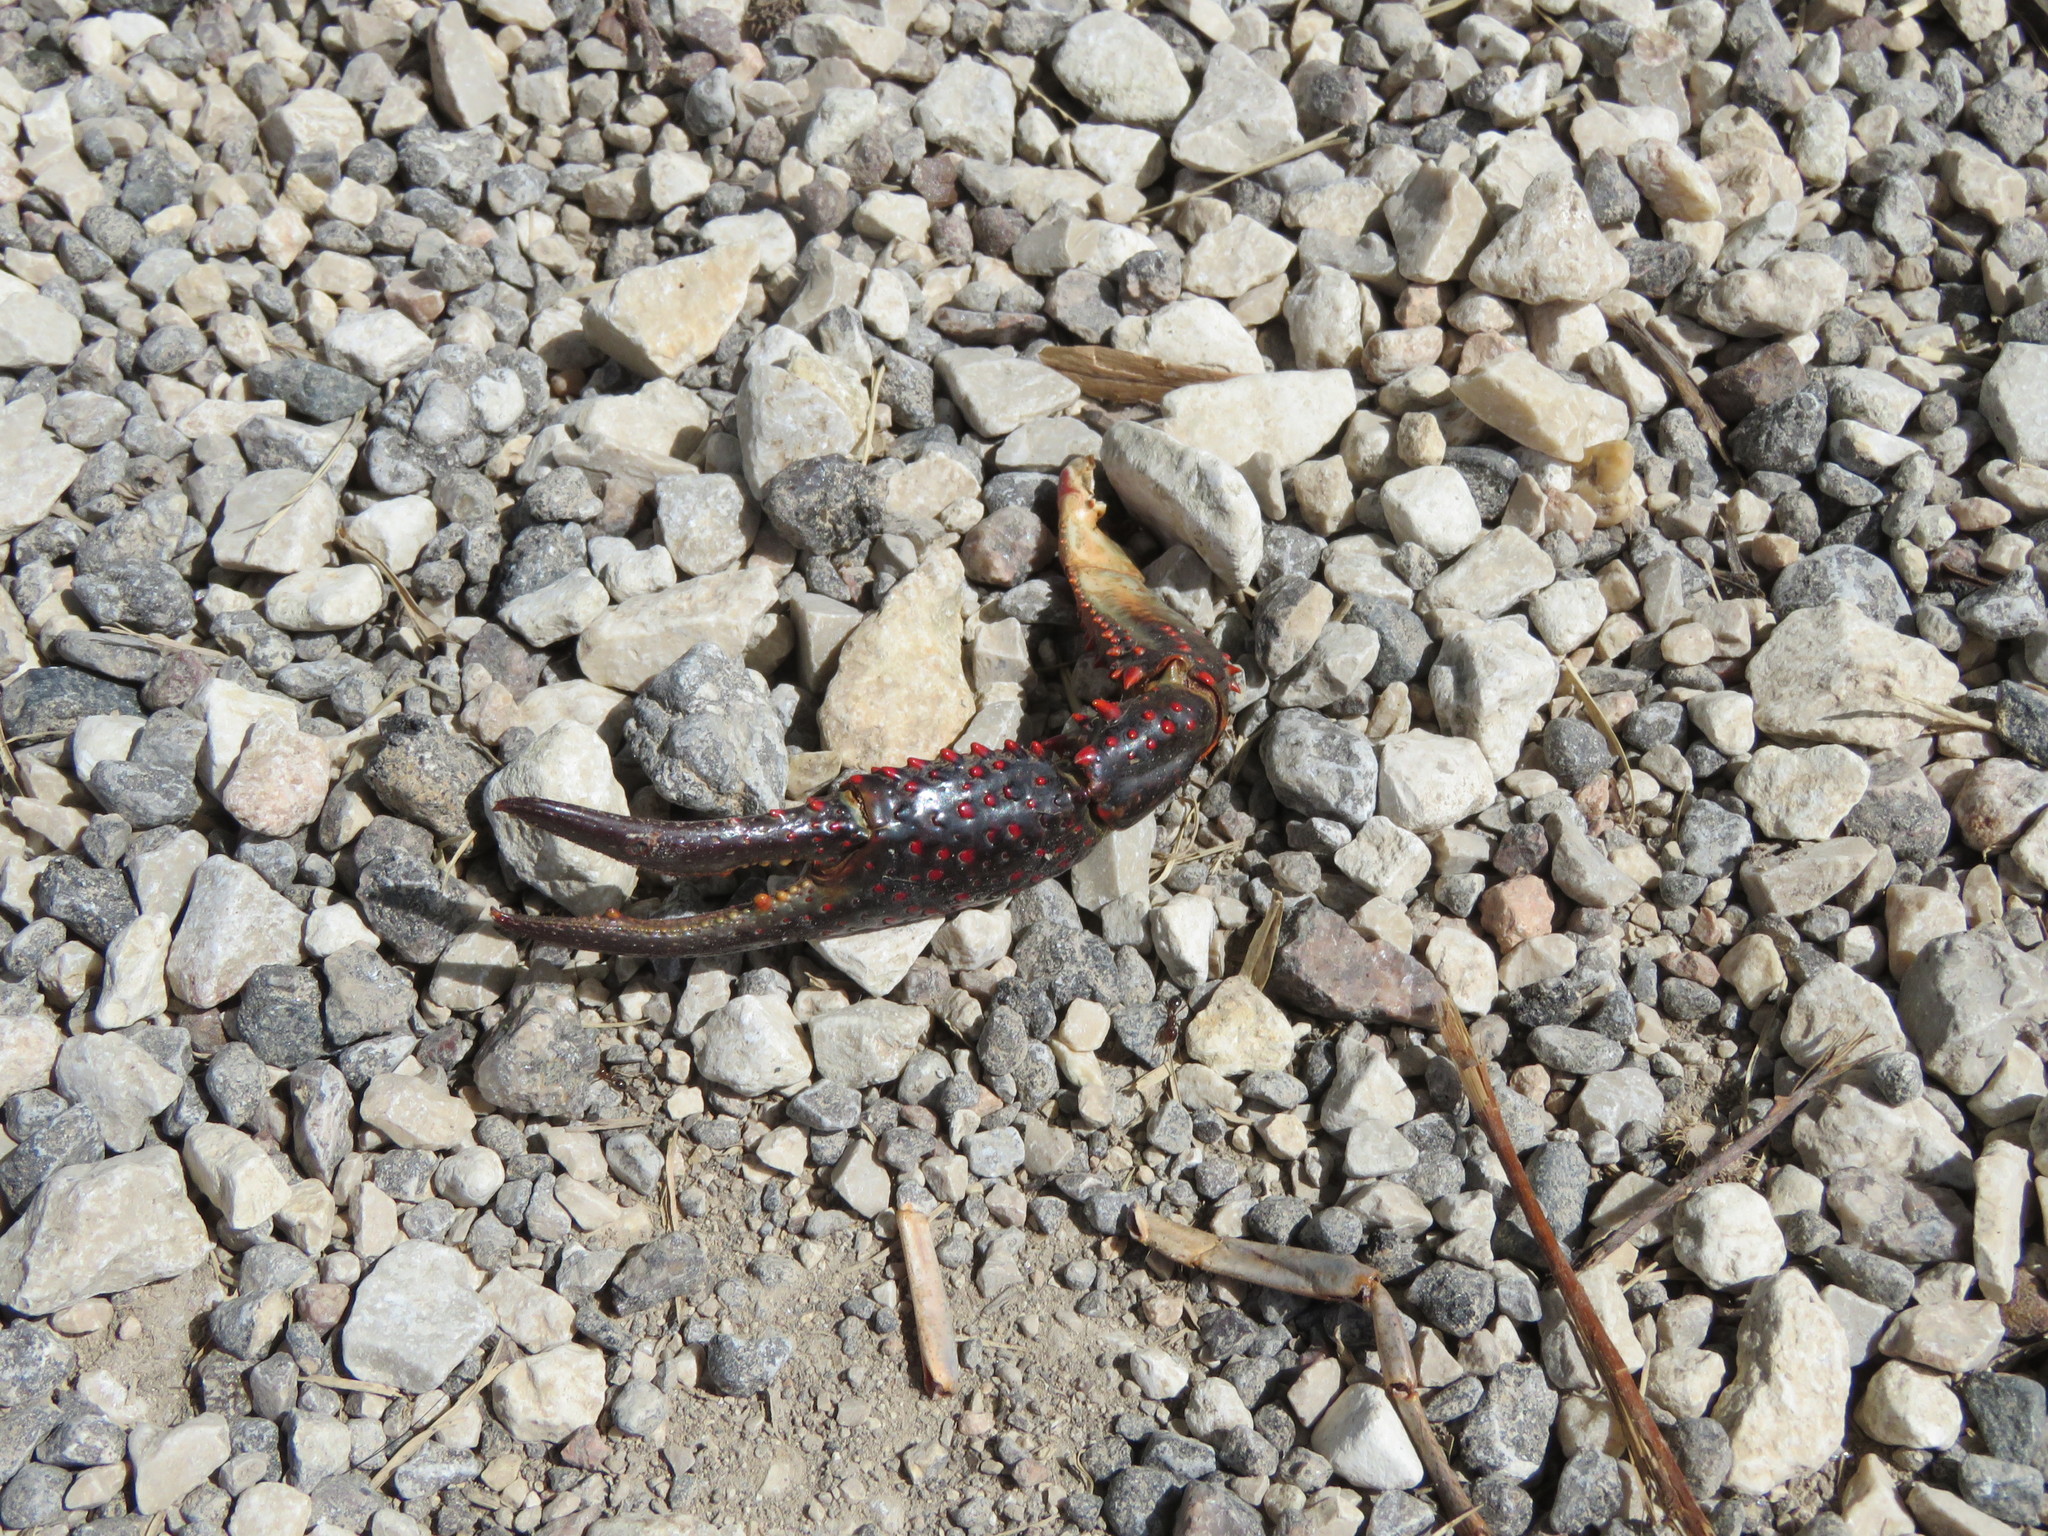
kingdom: Animalia
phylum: Arthropoda
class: Malacostraca
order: Decapoda
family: Cambaridae
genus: Procambarus
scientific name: Procambarus clarkii
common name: Red swamp crayfish
